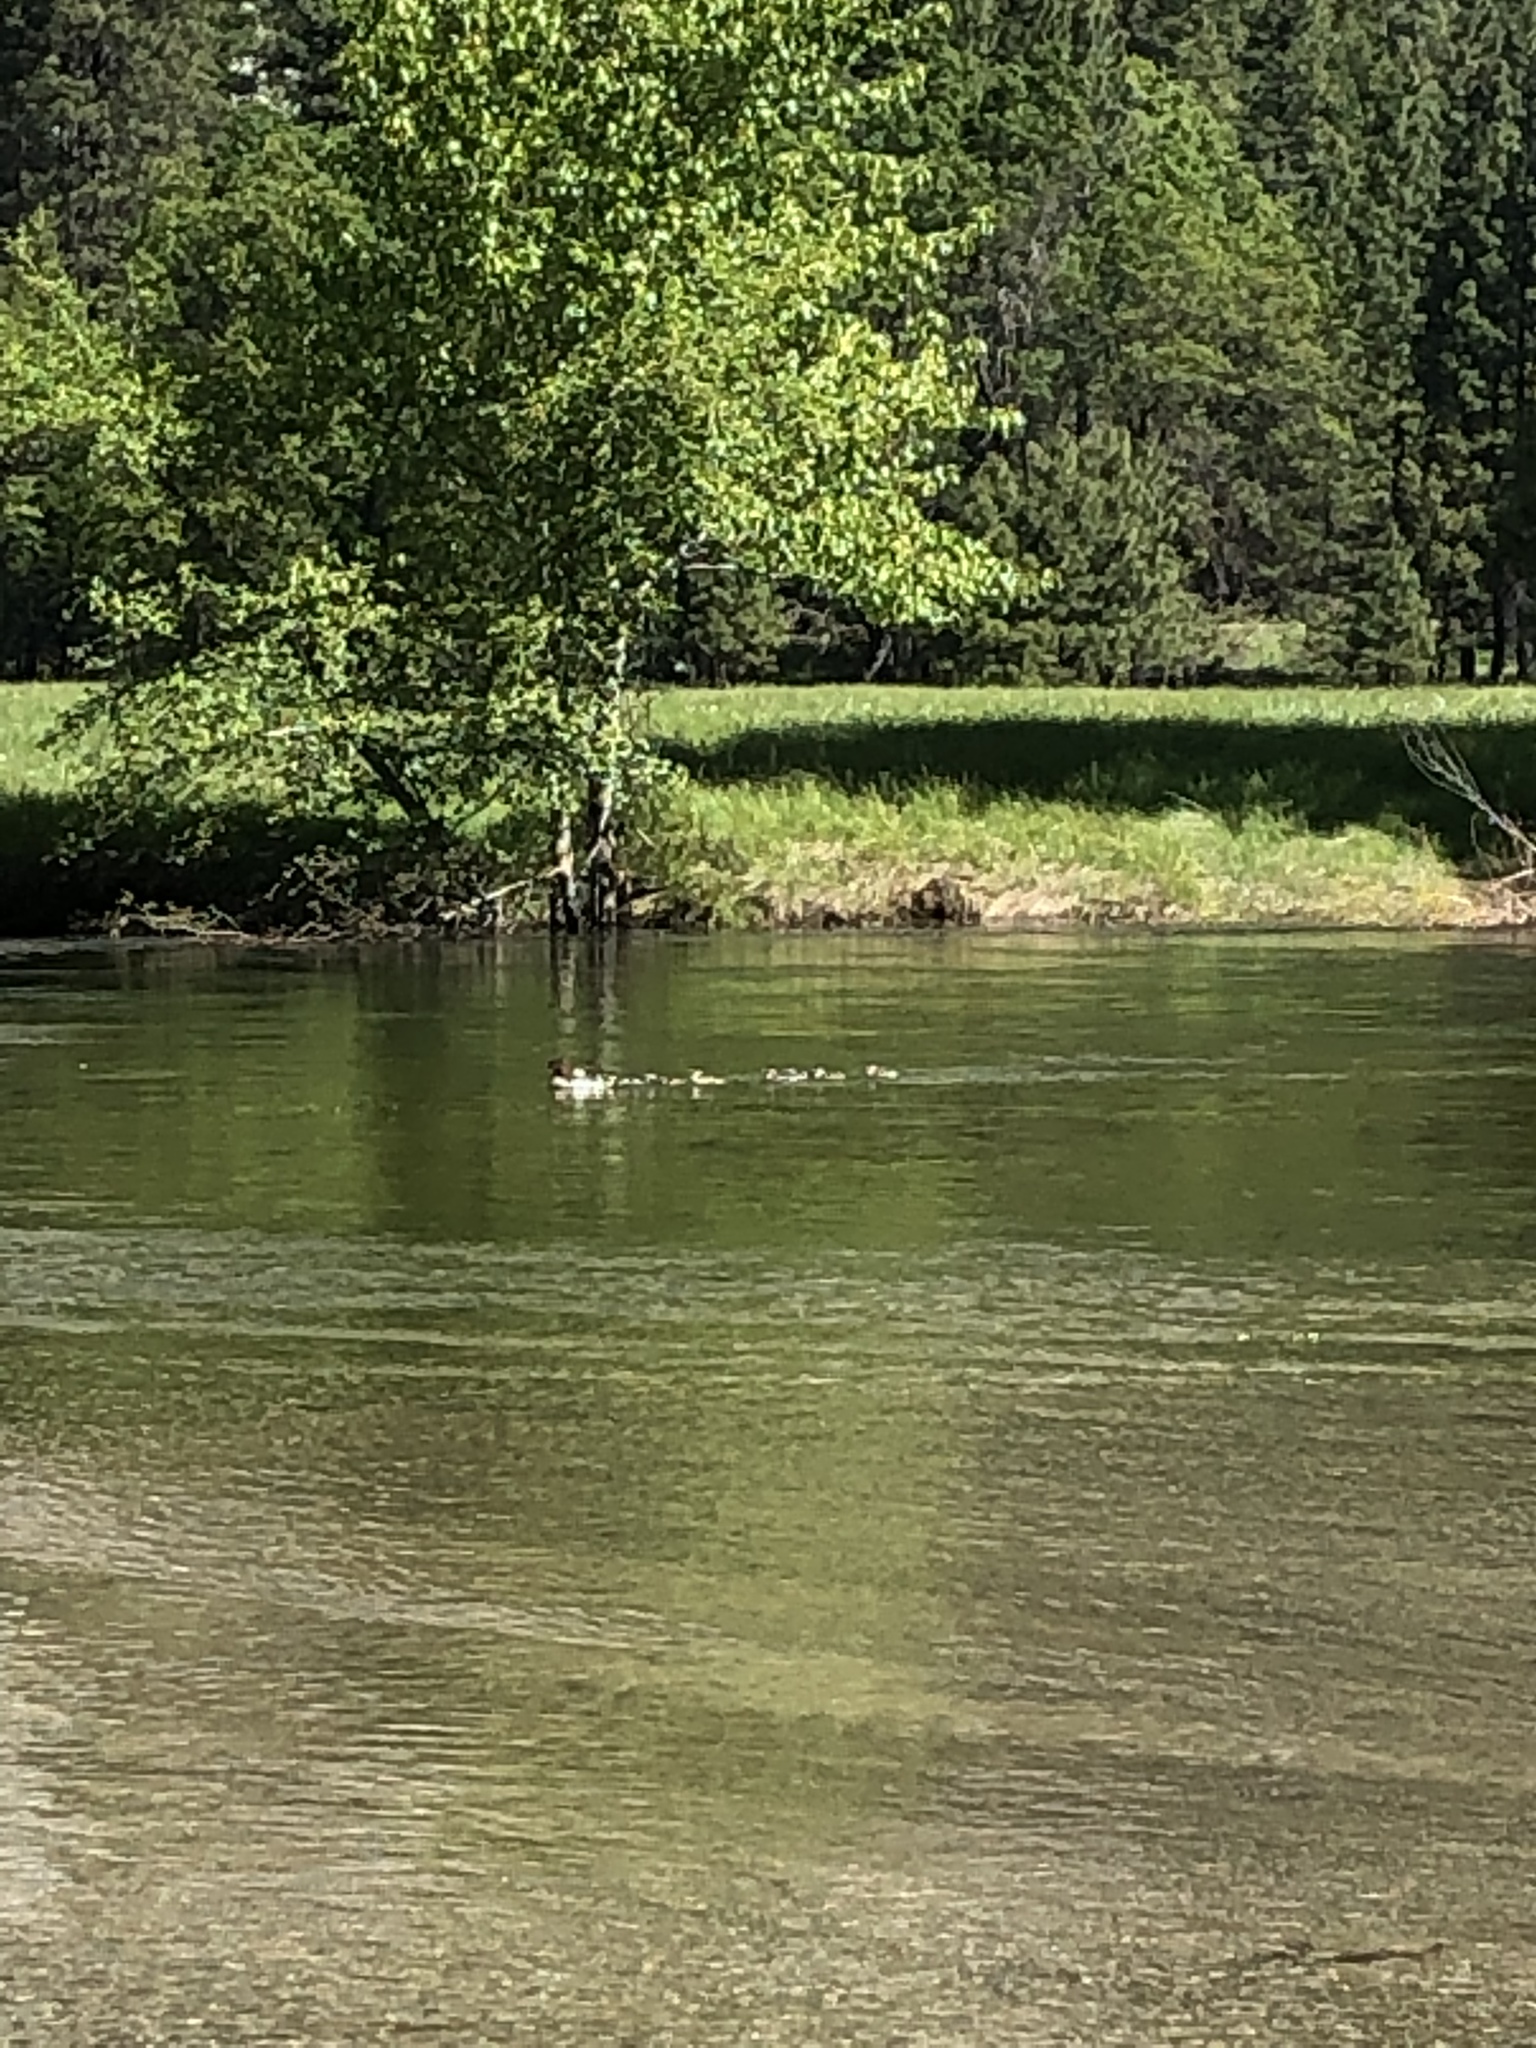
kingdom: Animalia
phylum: Chordata
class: Aves
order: Anseriformes
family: Anatidae
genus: Mergus
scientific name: Mergus merganser
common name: Common merganser
